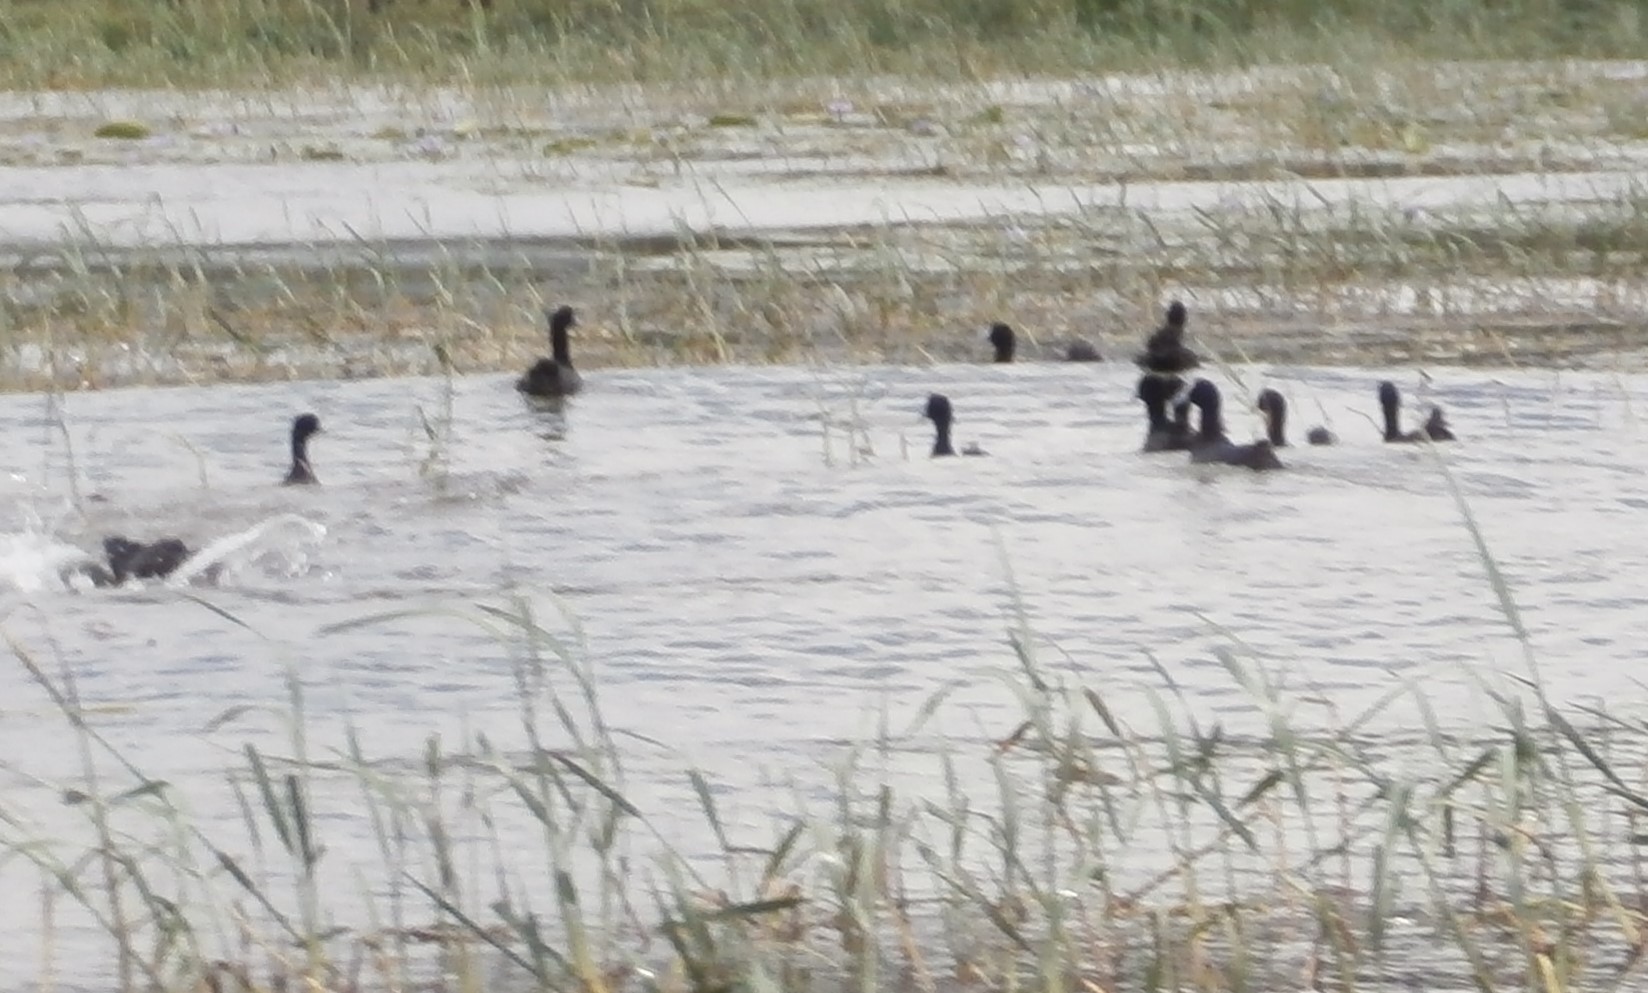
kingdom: Animalia
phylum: Chordata
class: Aves
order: Gruiformes
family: Rallidae
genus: Fulica
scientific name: Fulica cristata
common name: Red-knobbed coot
